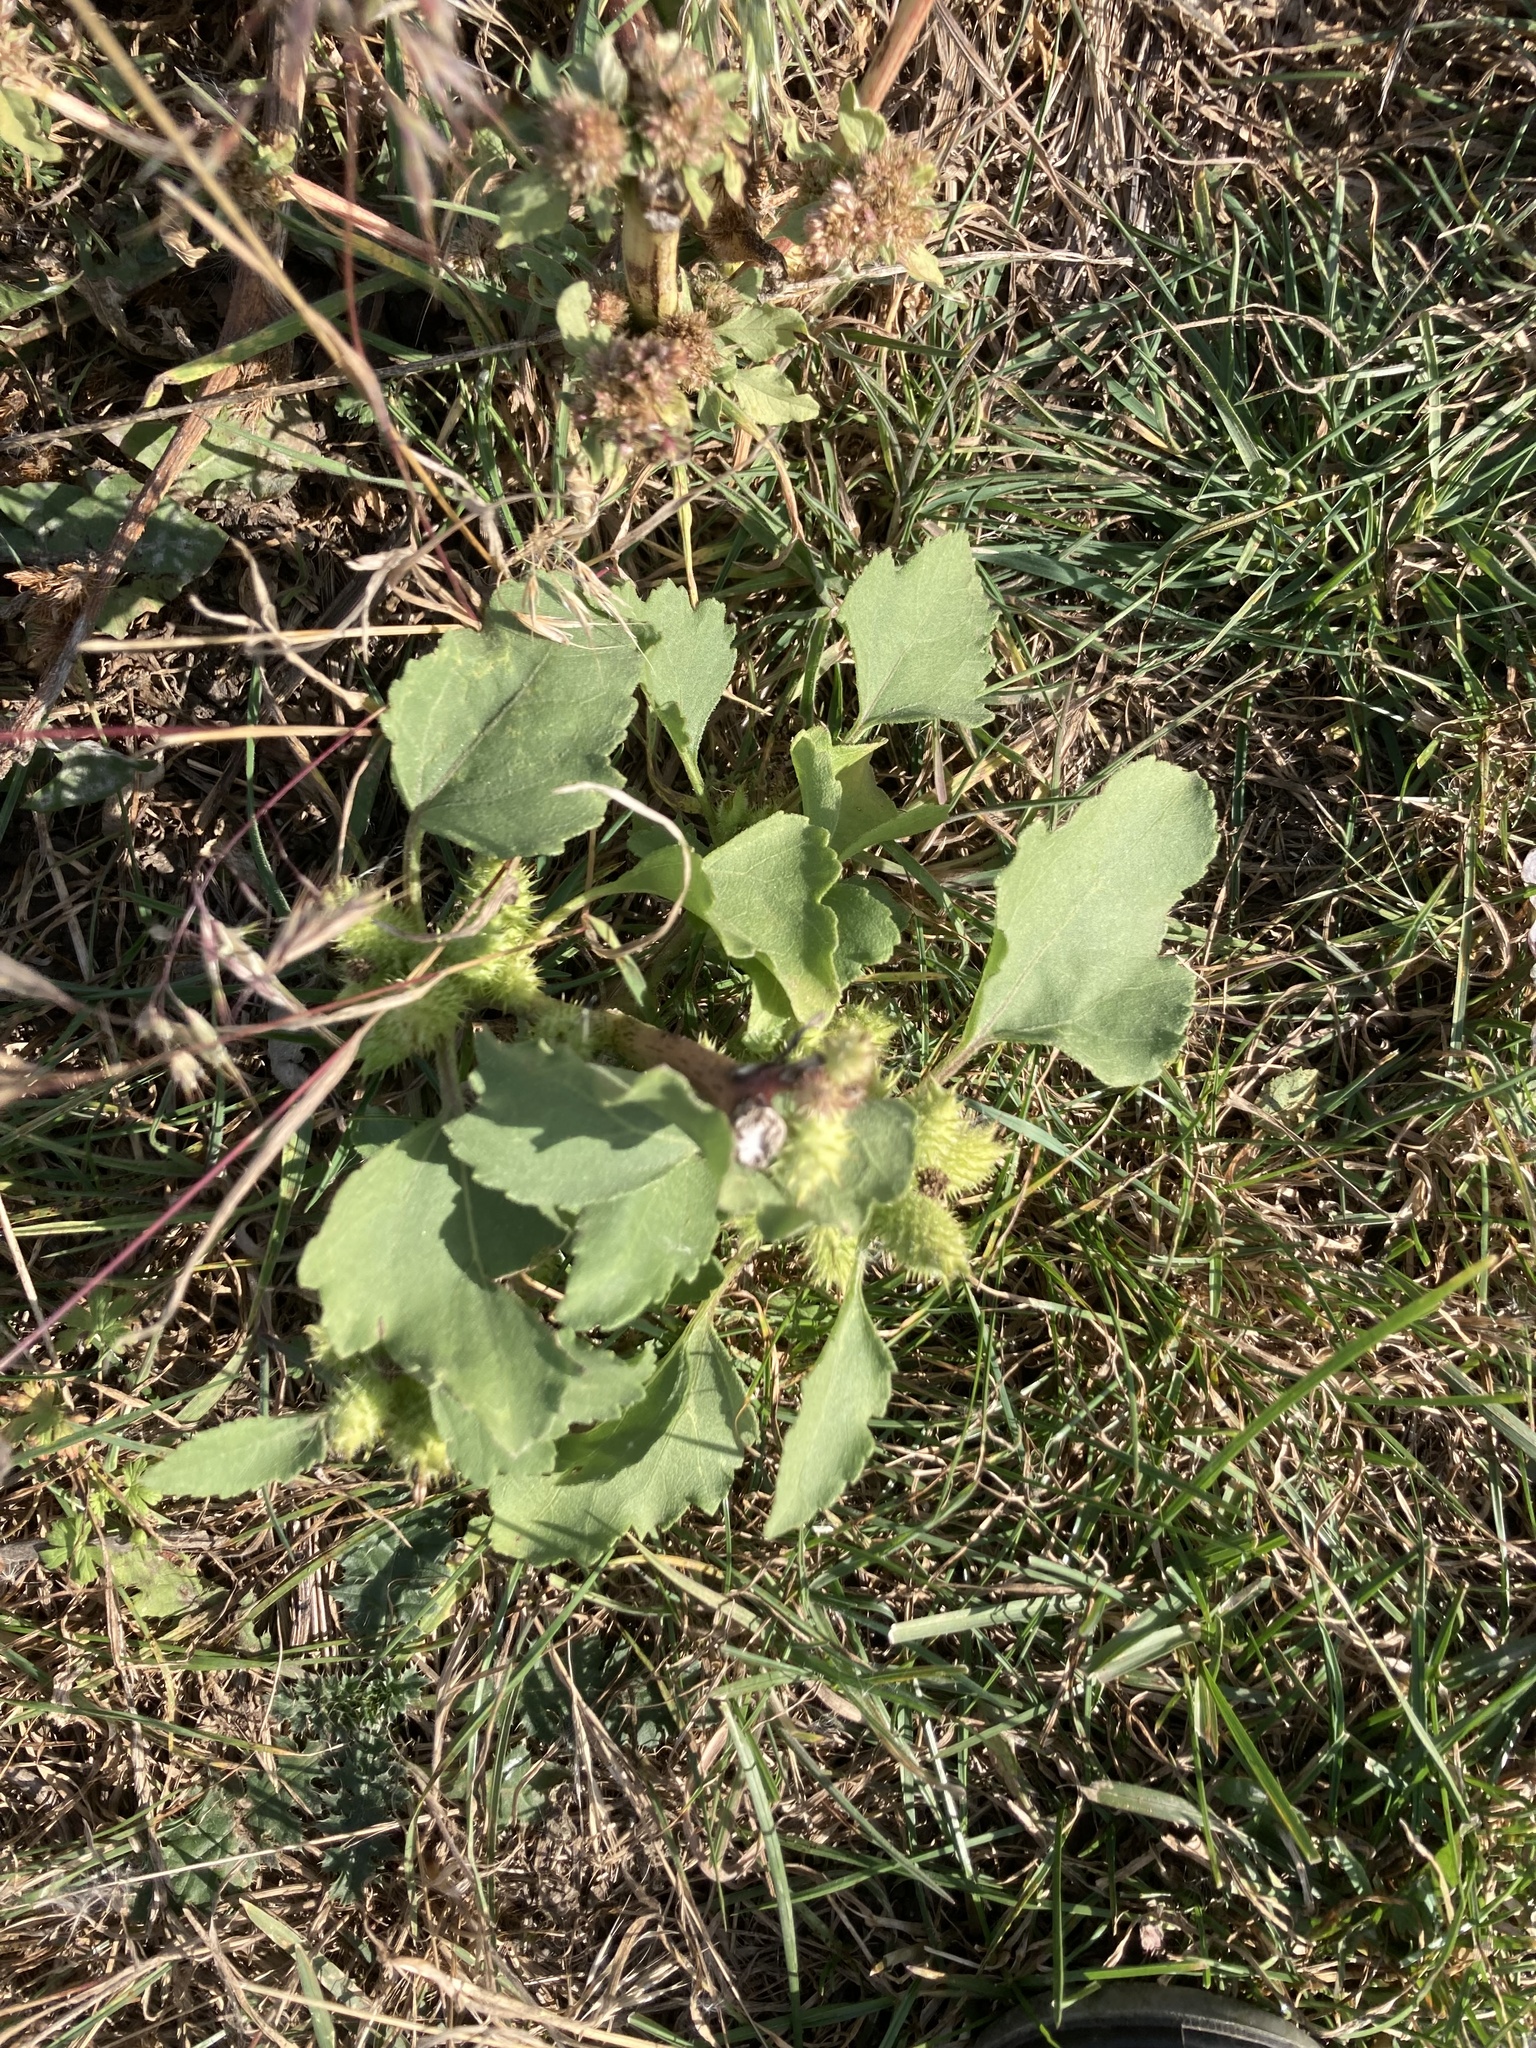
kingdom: Plantae
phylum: Tracheophyta
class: Magnoliopsida
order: Asterales
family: Asteraceae
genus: Xanthium
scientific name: Xanthium orientale
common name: Californian burr
